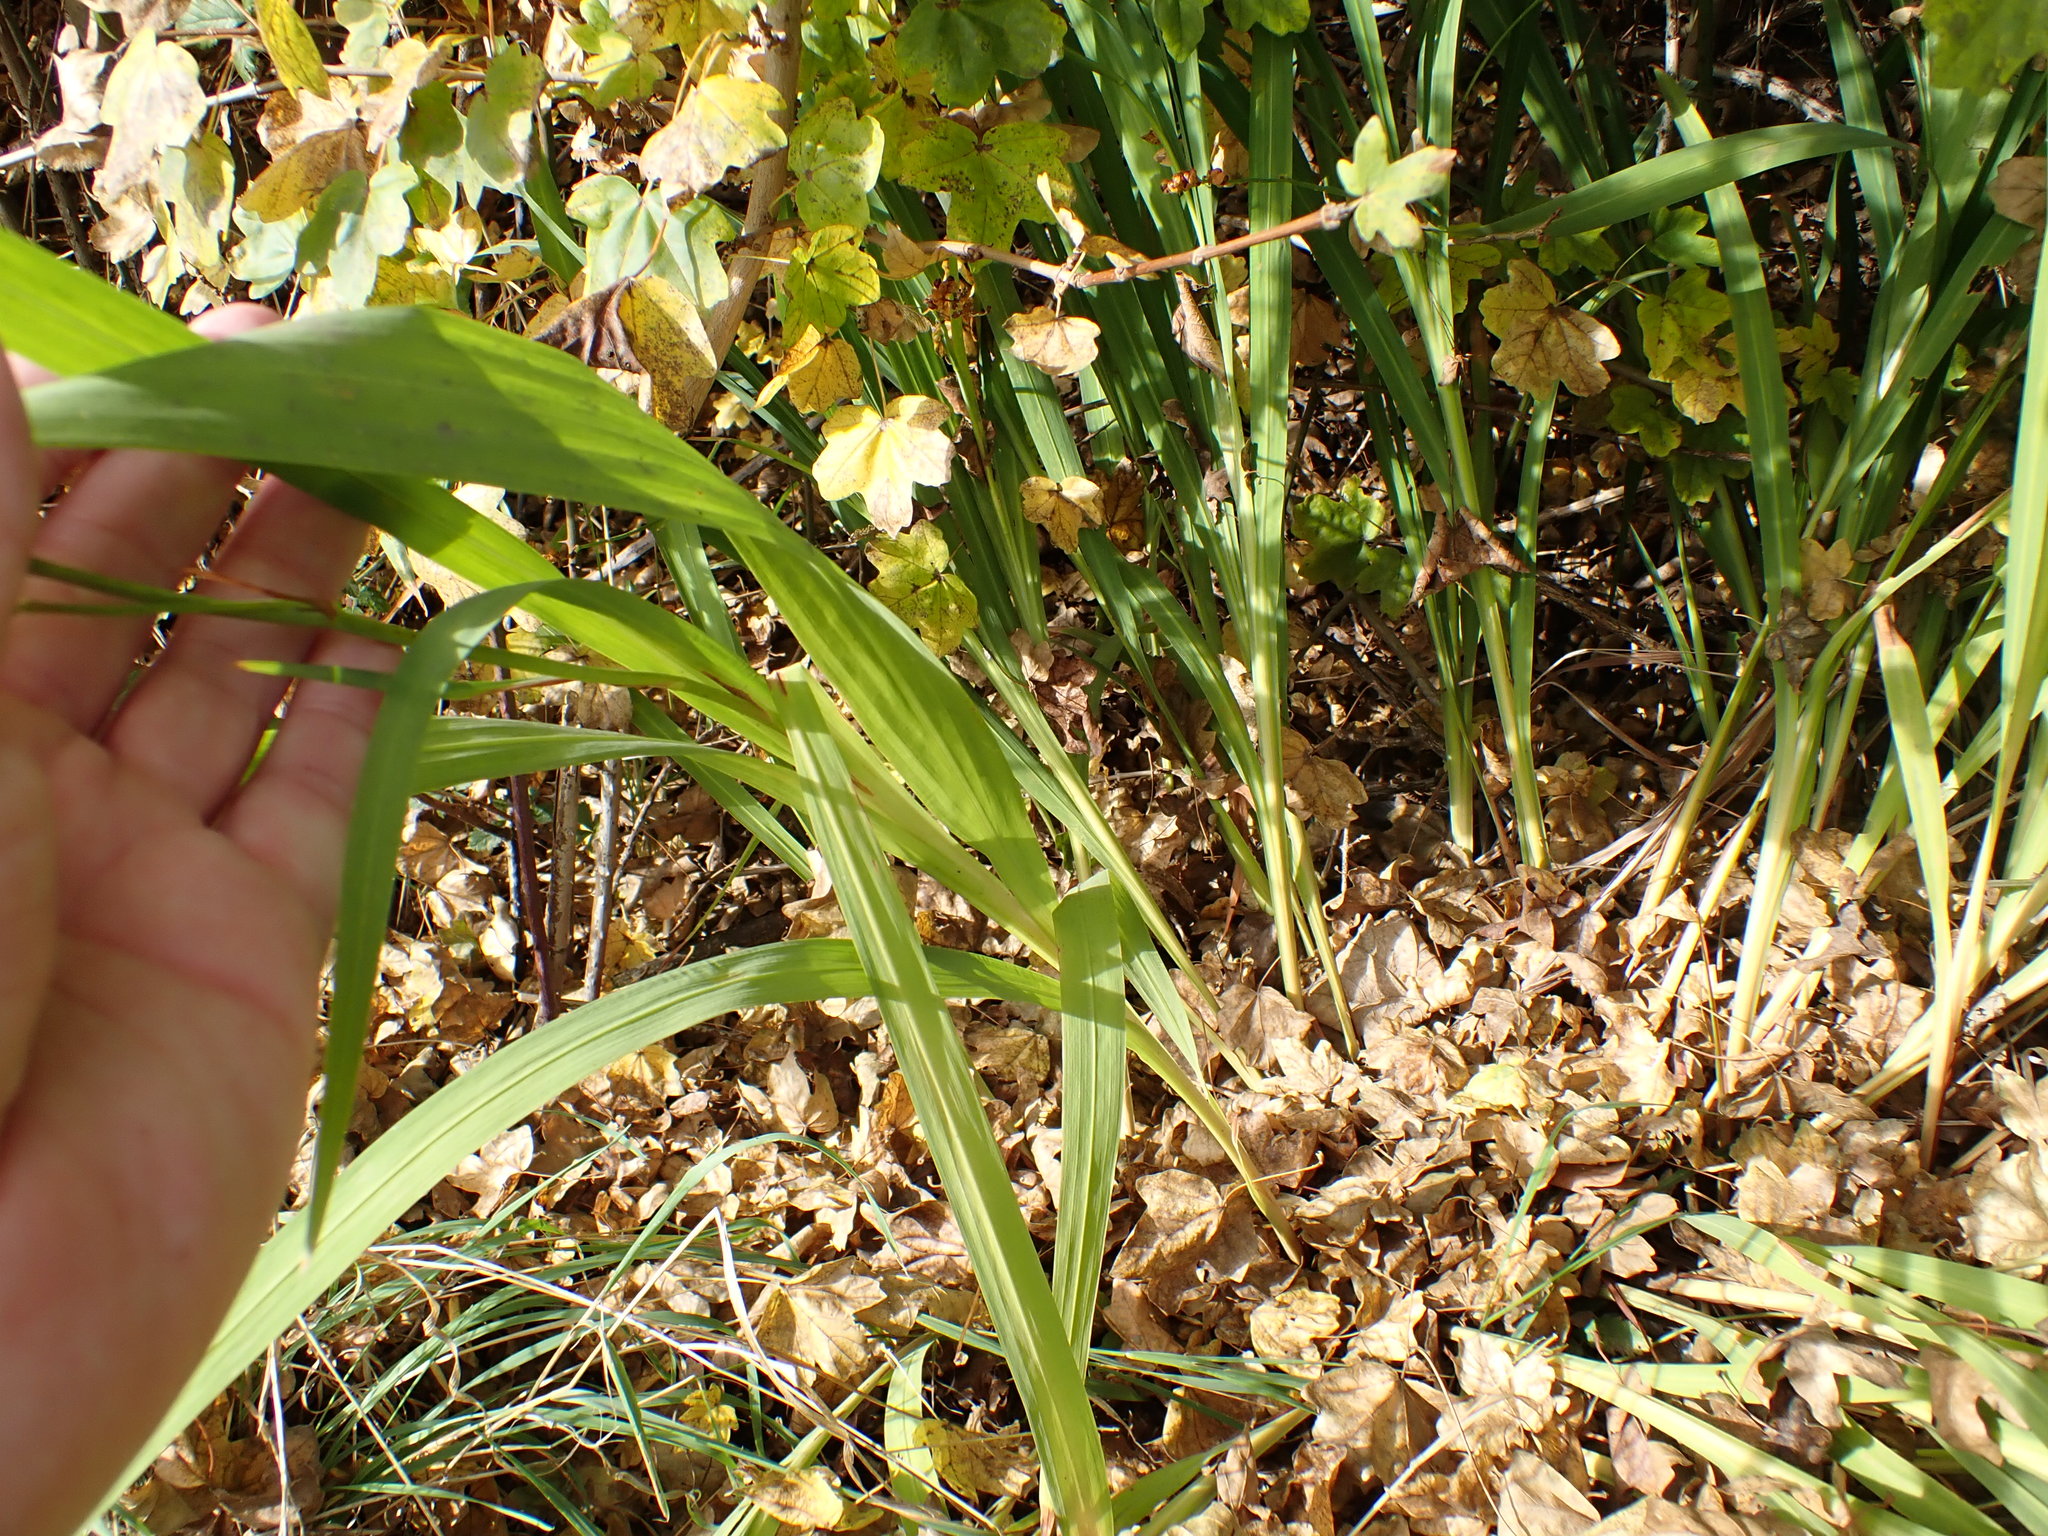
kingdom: Plantae
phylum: Tracheophyta
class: Liliopsida
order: Asparagales
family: Iridaceae
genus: Crocosmia
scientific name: Crocosmia crocosmiiflora
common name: Montbretia
